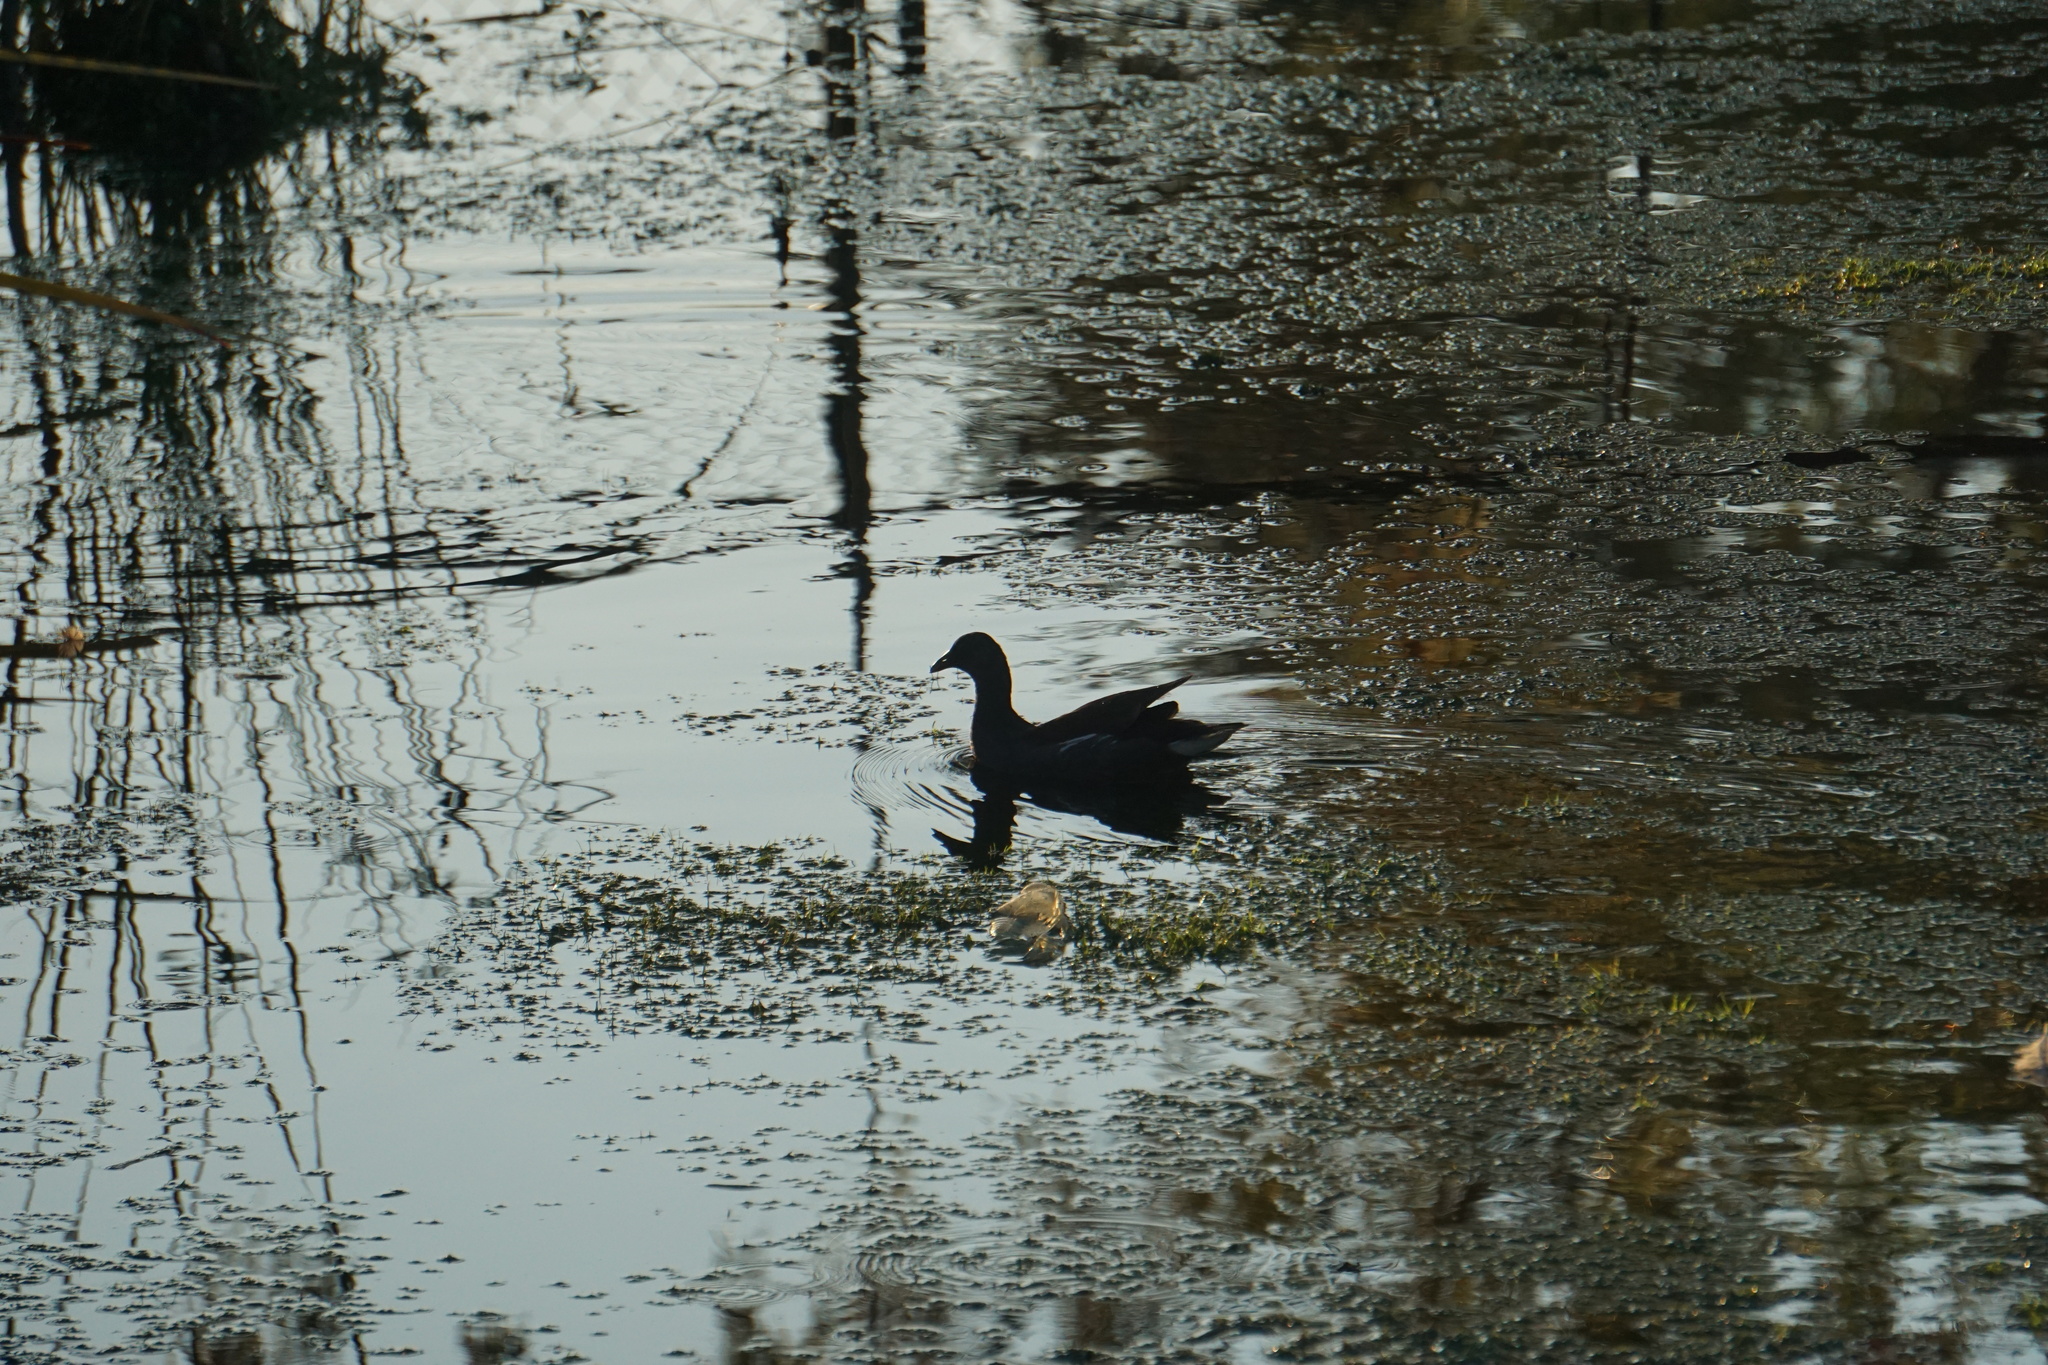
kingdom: Animalia
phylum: Chordata
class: Aves
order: Gruiformes
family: Rallidae
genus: Gallinula
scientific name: Gallinula chloropus
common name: Common moorhen
